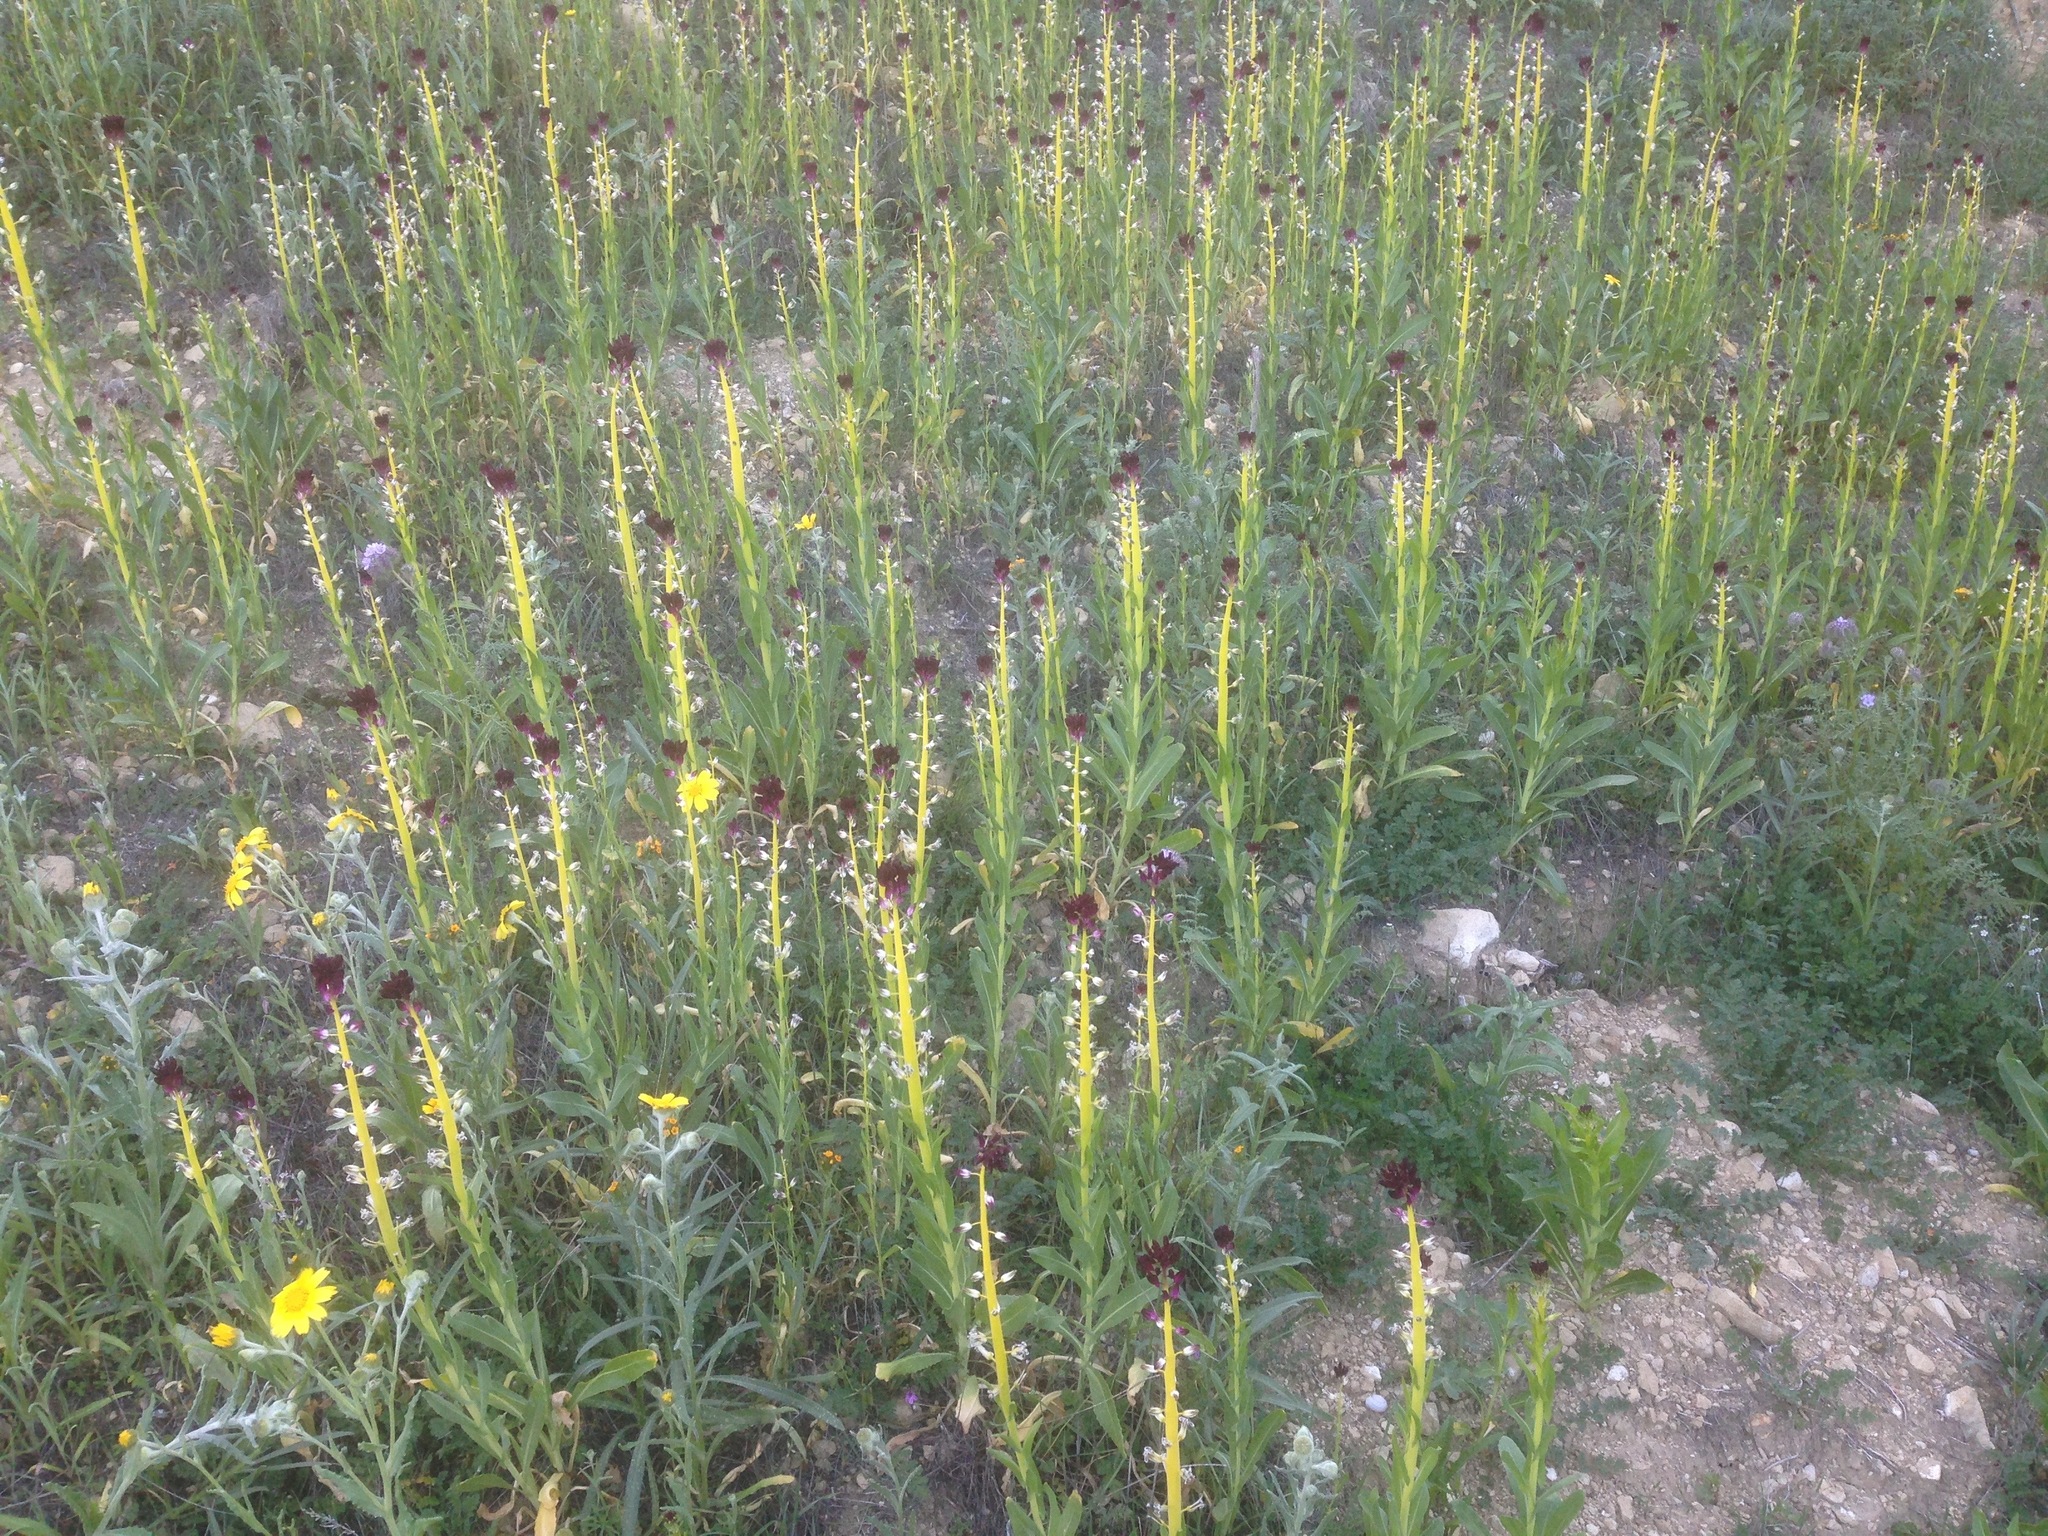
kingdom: Plantae
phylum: Tracheophyta
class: Magnoliopsida
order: Brassicales
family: Brassicaceae
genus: Streptanthus
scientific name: Streptanthus inflatus
